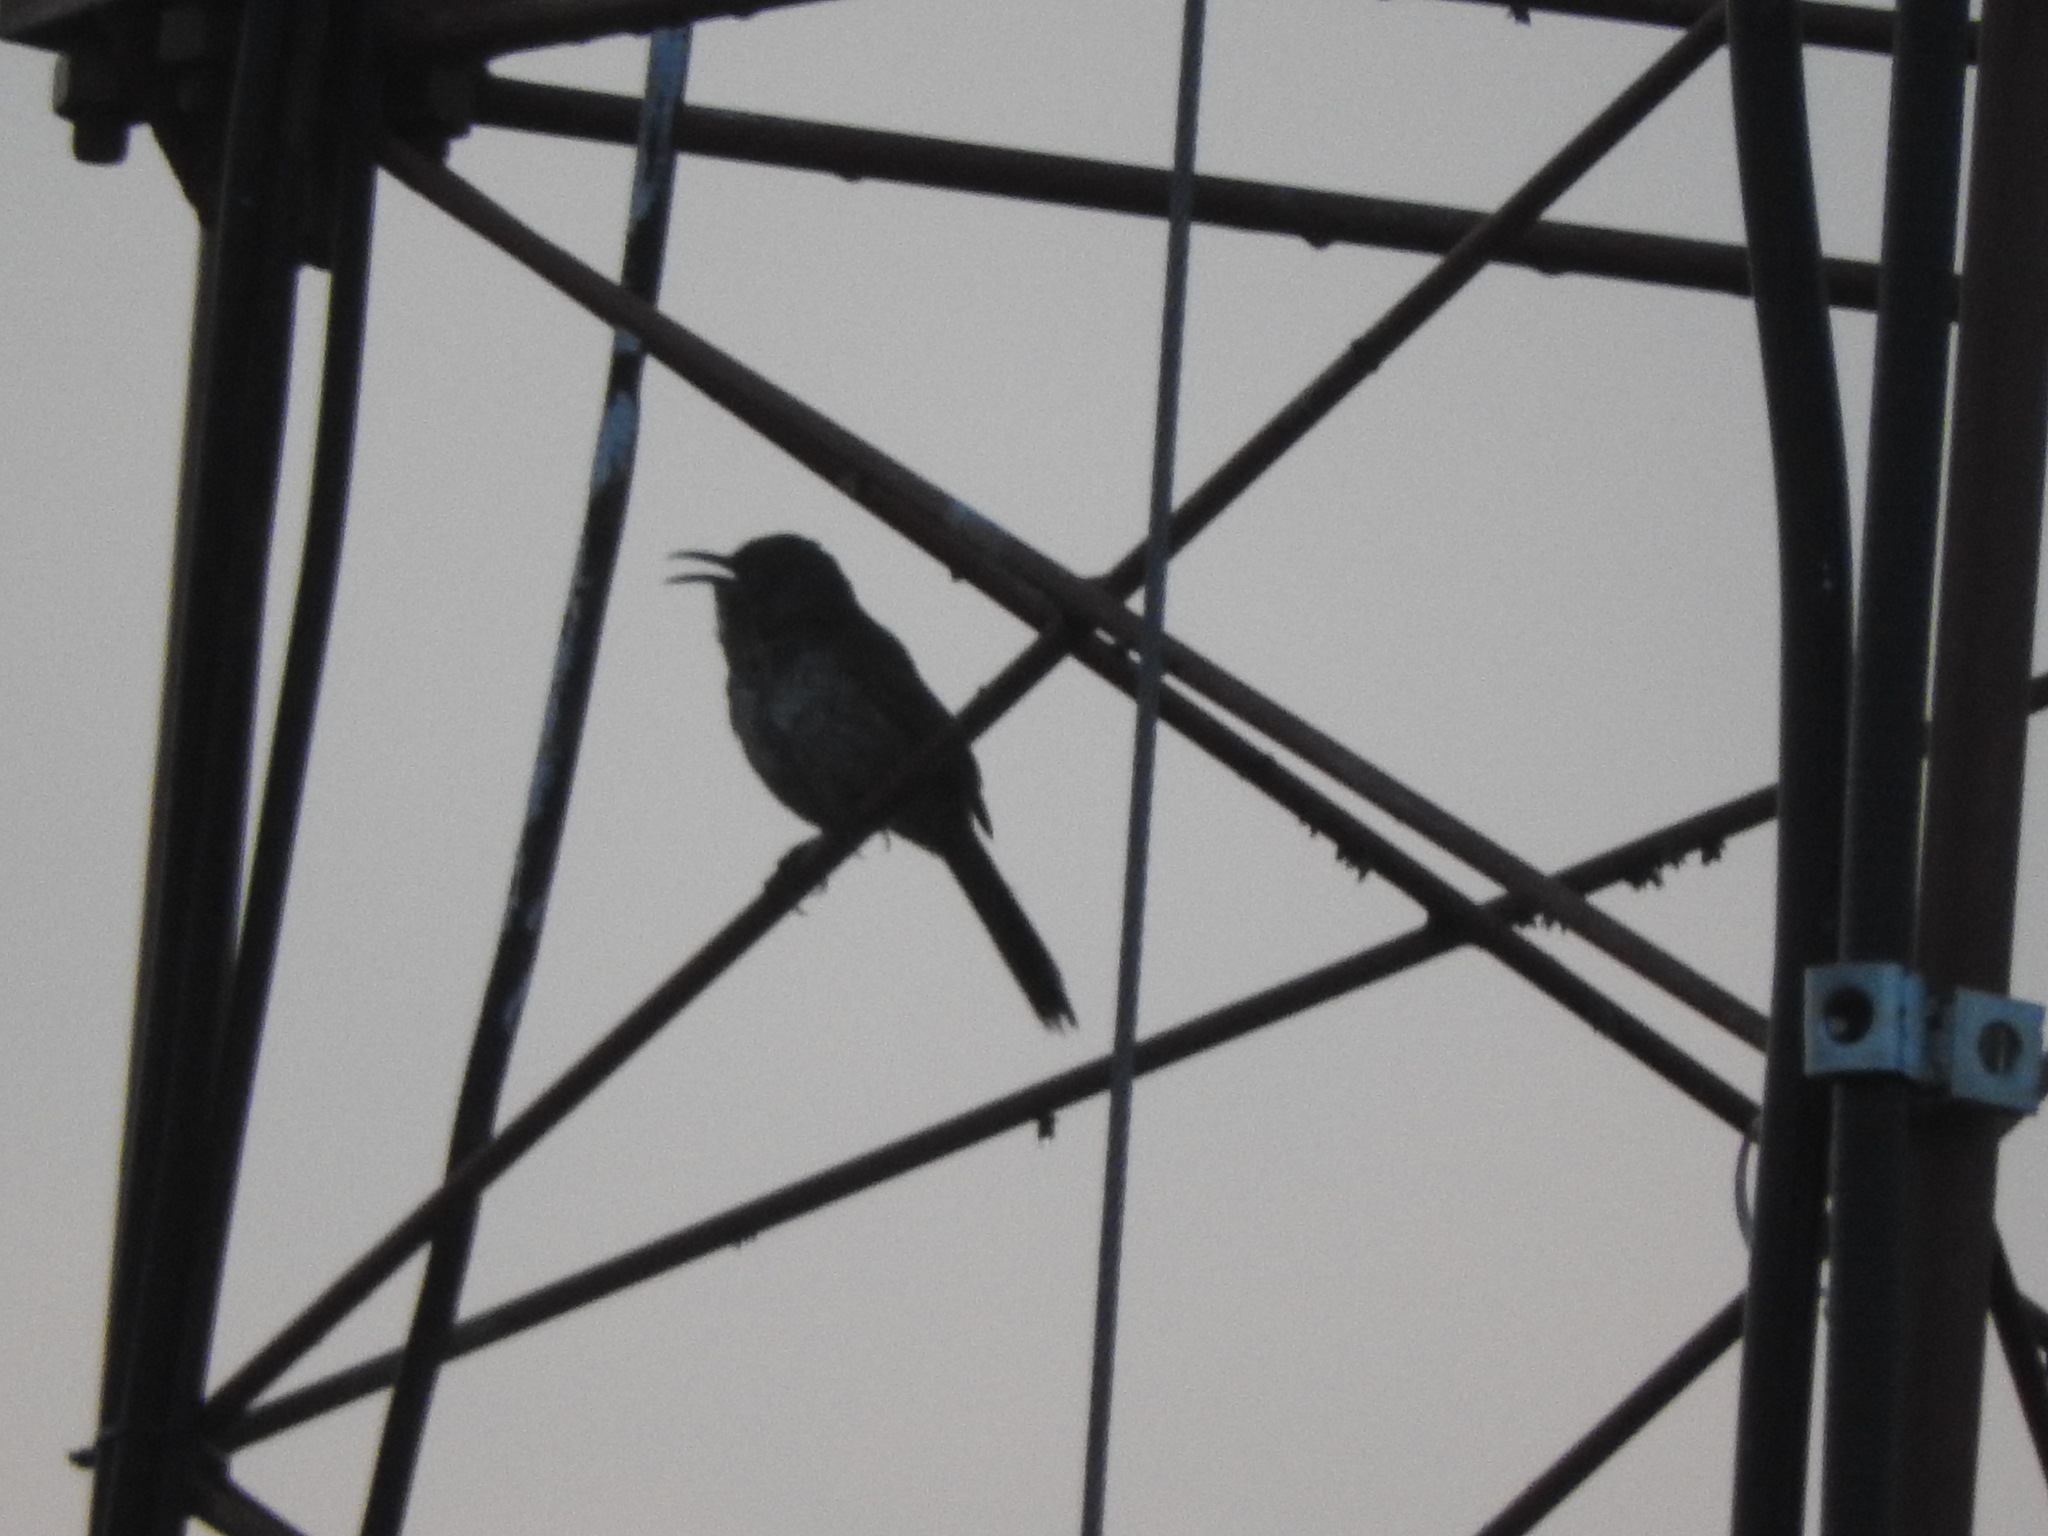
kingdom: Animalia
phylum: Chordata
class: Aves
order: Passeriformes
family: Mimidae
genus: Toxostoma
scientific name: Toxostoma curvirostre
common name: Curve-billed thrasher
